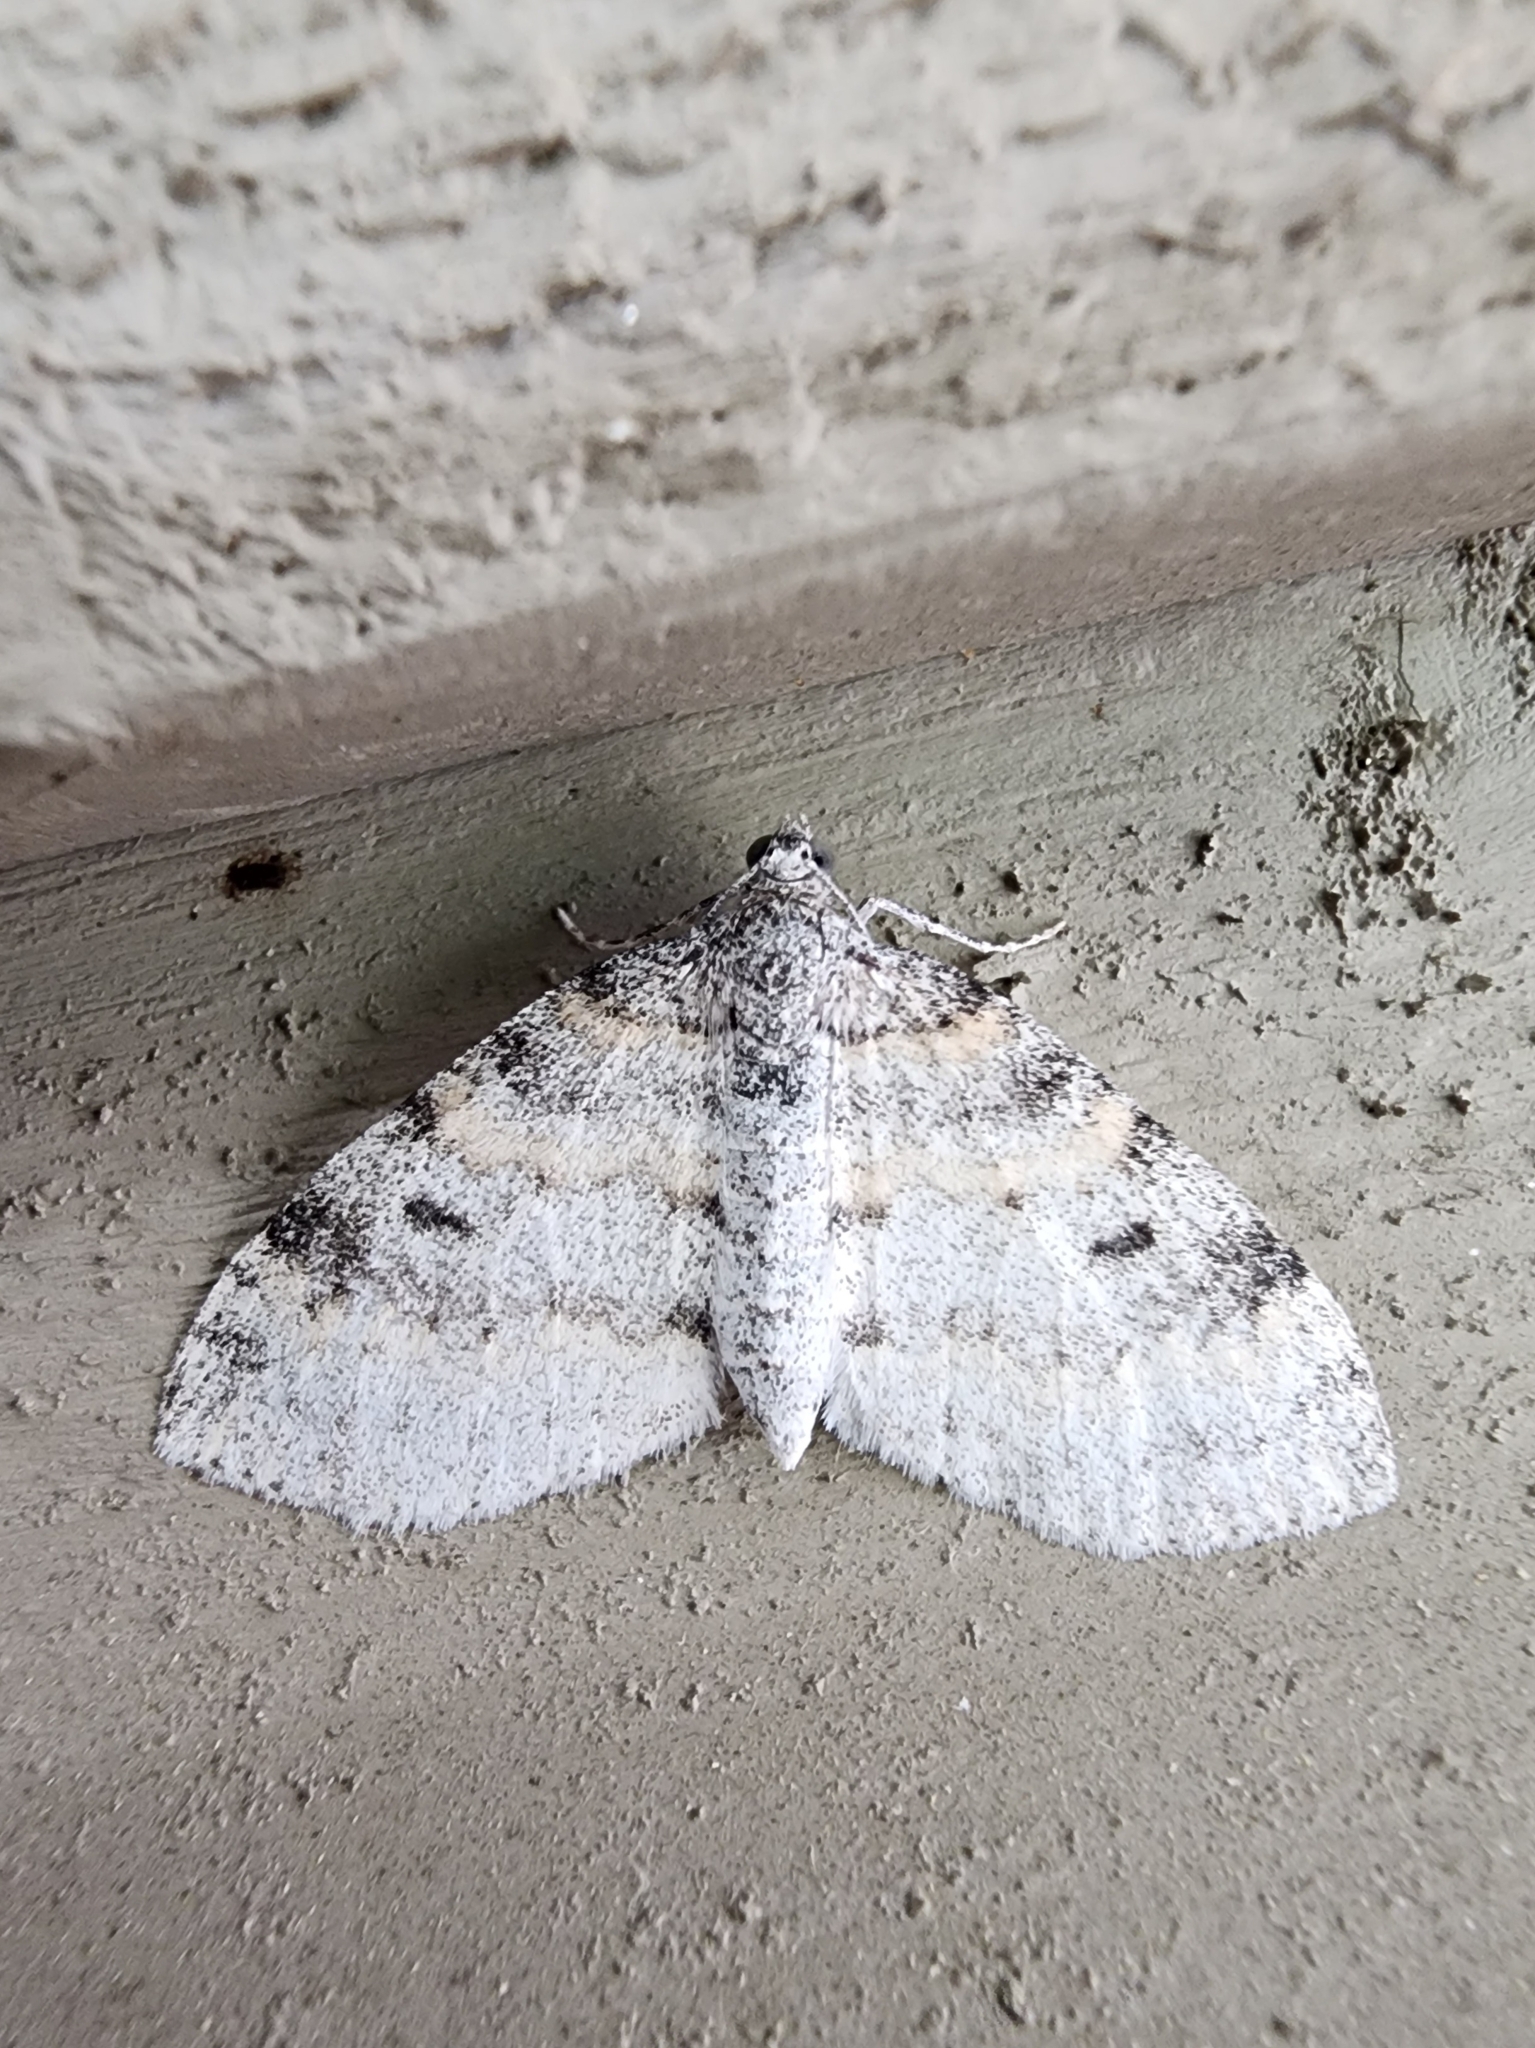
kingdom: Animalia
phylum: Arthropoda
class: Insecta
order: Lepidoptera
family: Geometridae
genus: Lobophora
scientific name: Lobophora nivigerata
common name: Powdered bigwing
